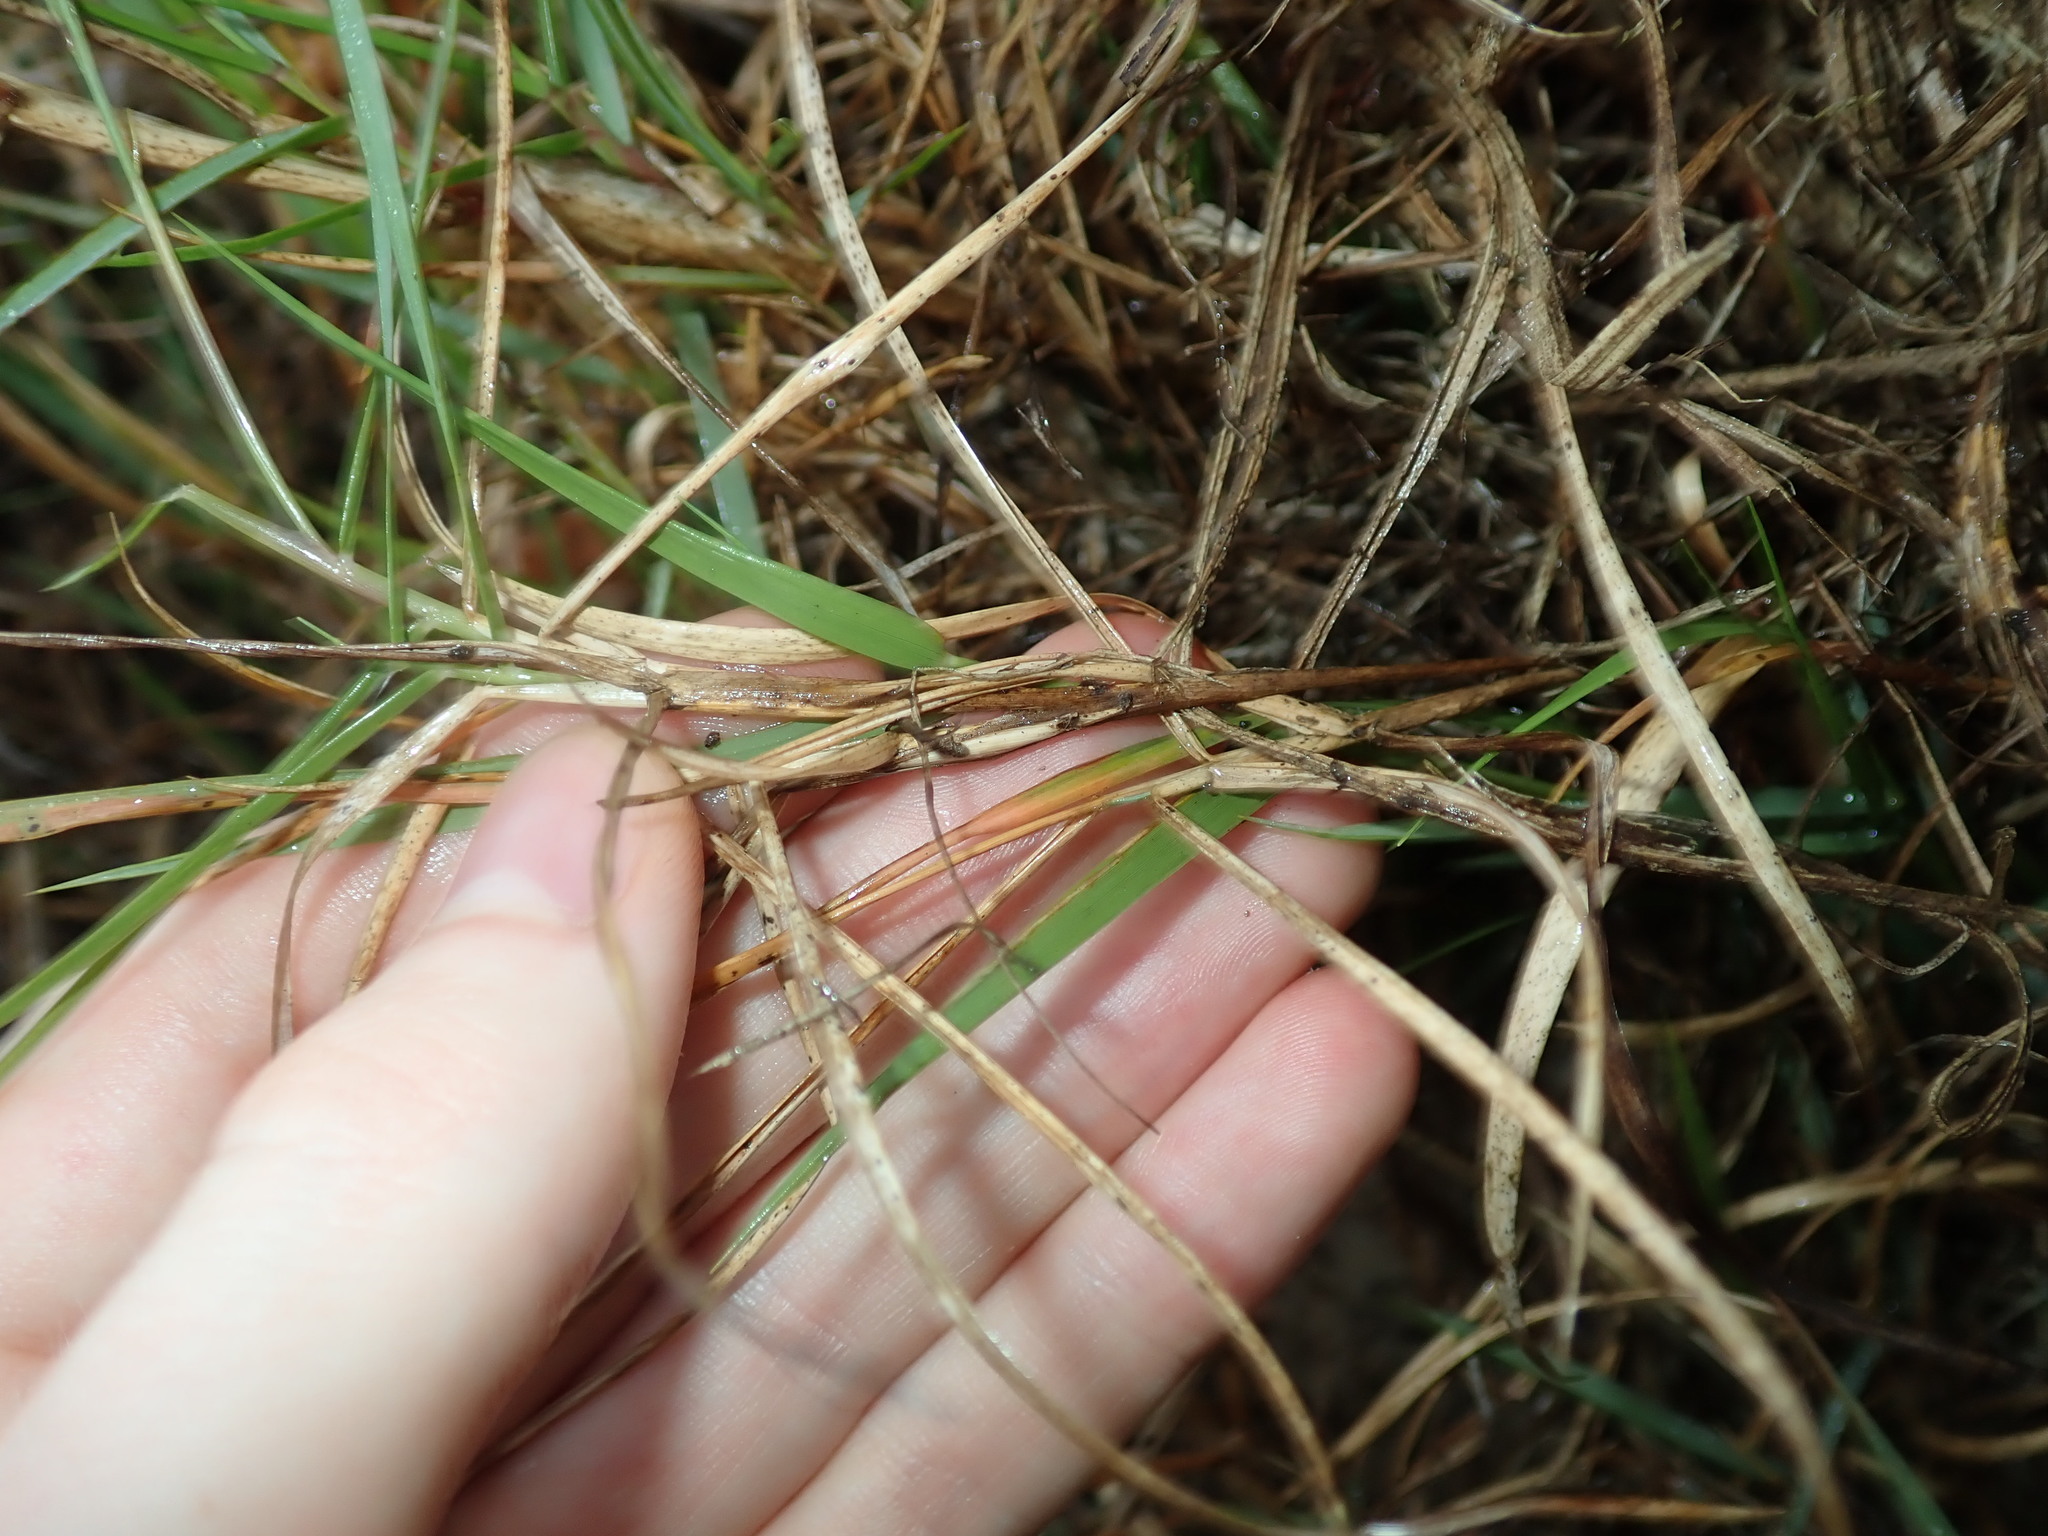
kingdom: Plantae
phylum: Tracheophyta
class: Liliopsida
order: Poales
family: Poaceae
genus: Zoysia
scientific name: Zoysia macrantha
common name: Korean lawn grass
